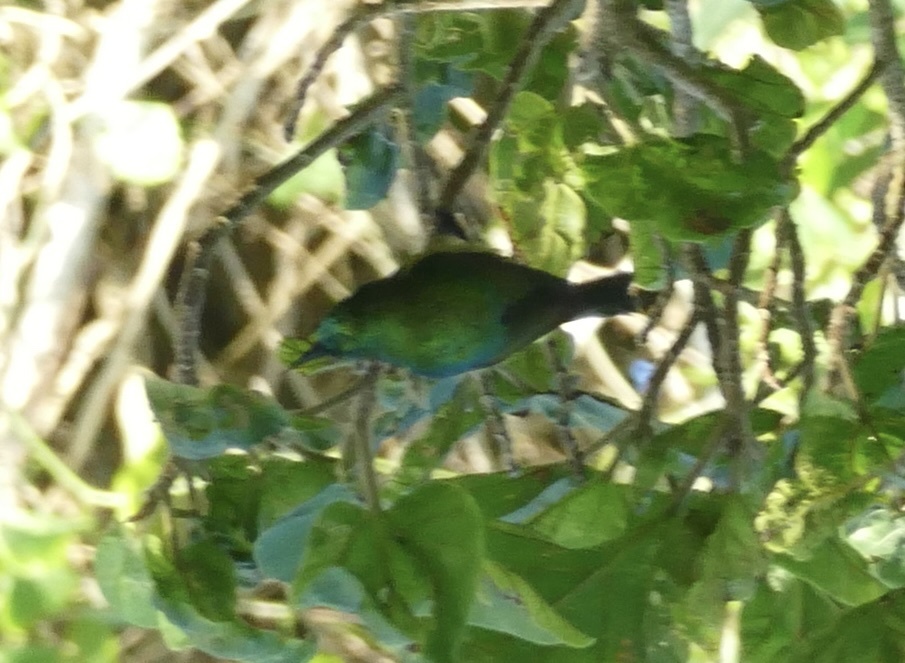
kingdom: Animalia
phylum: Chordata
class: Aves
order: Passeriformes
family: Nectariniidae
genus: Hedydipna
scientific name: Hedydipna collaris
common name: Collared sunbird
